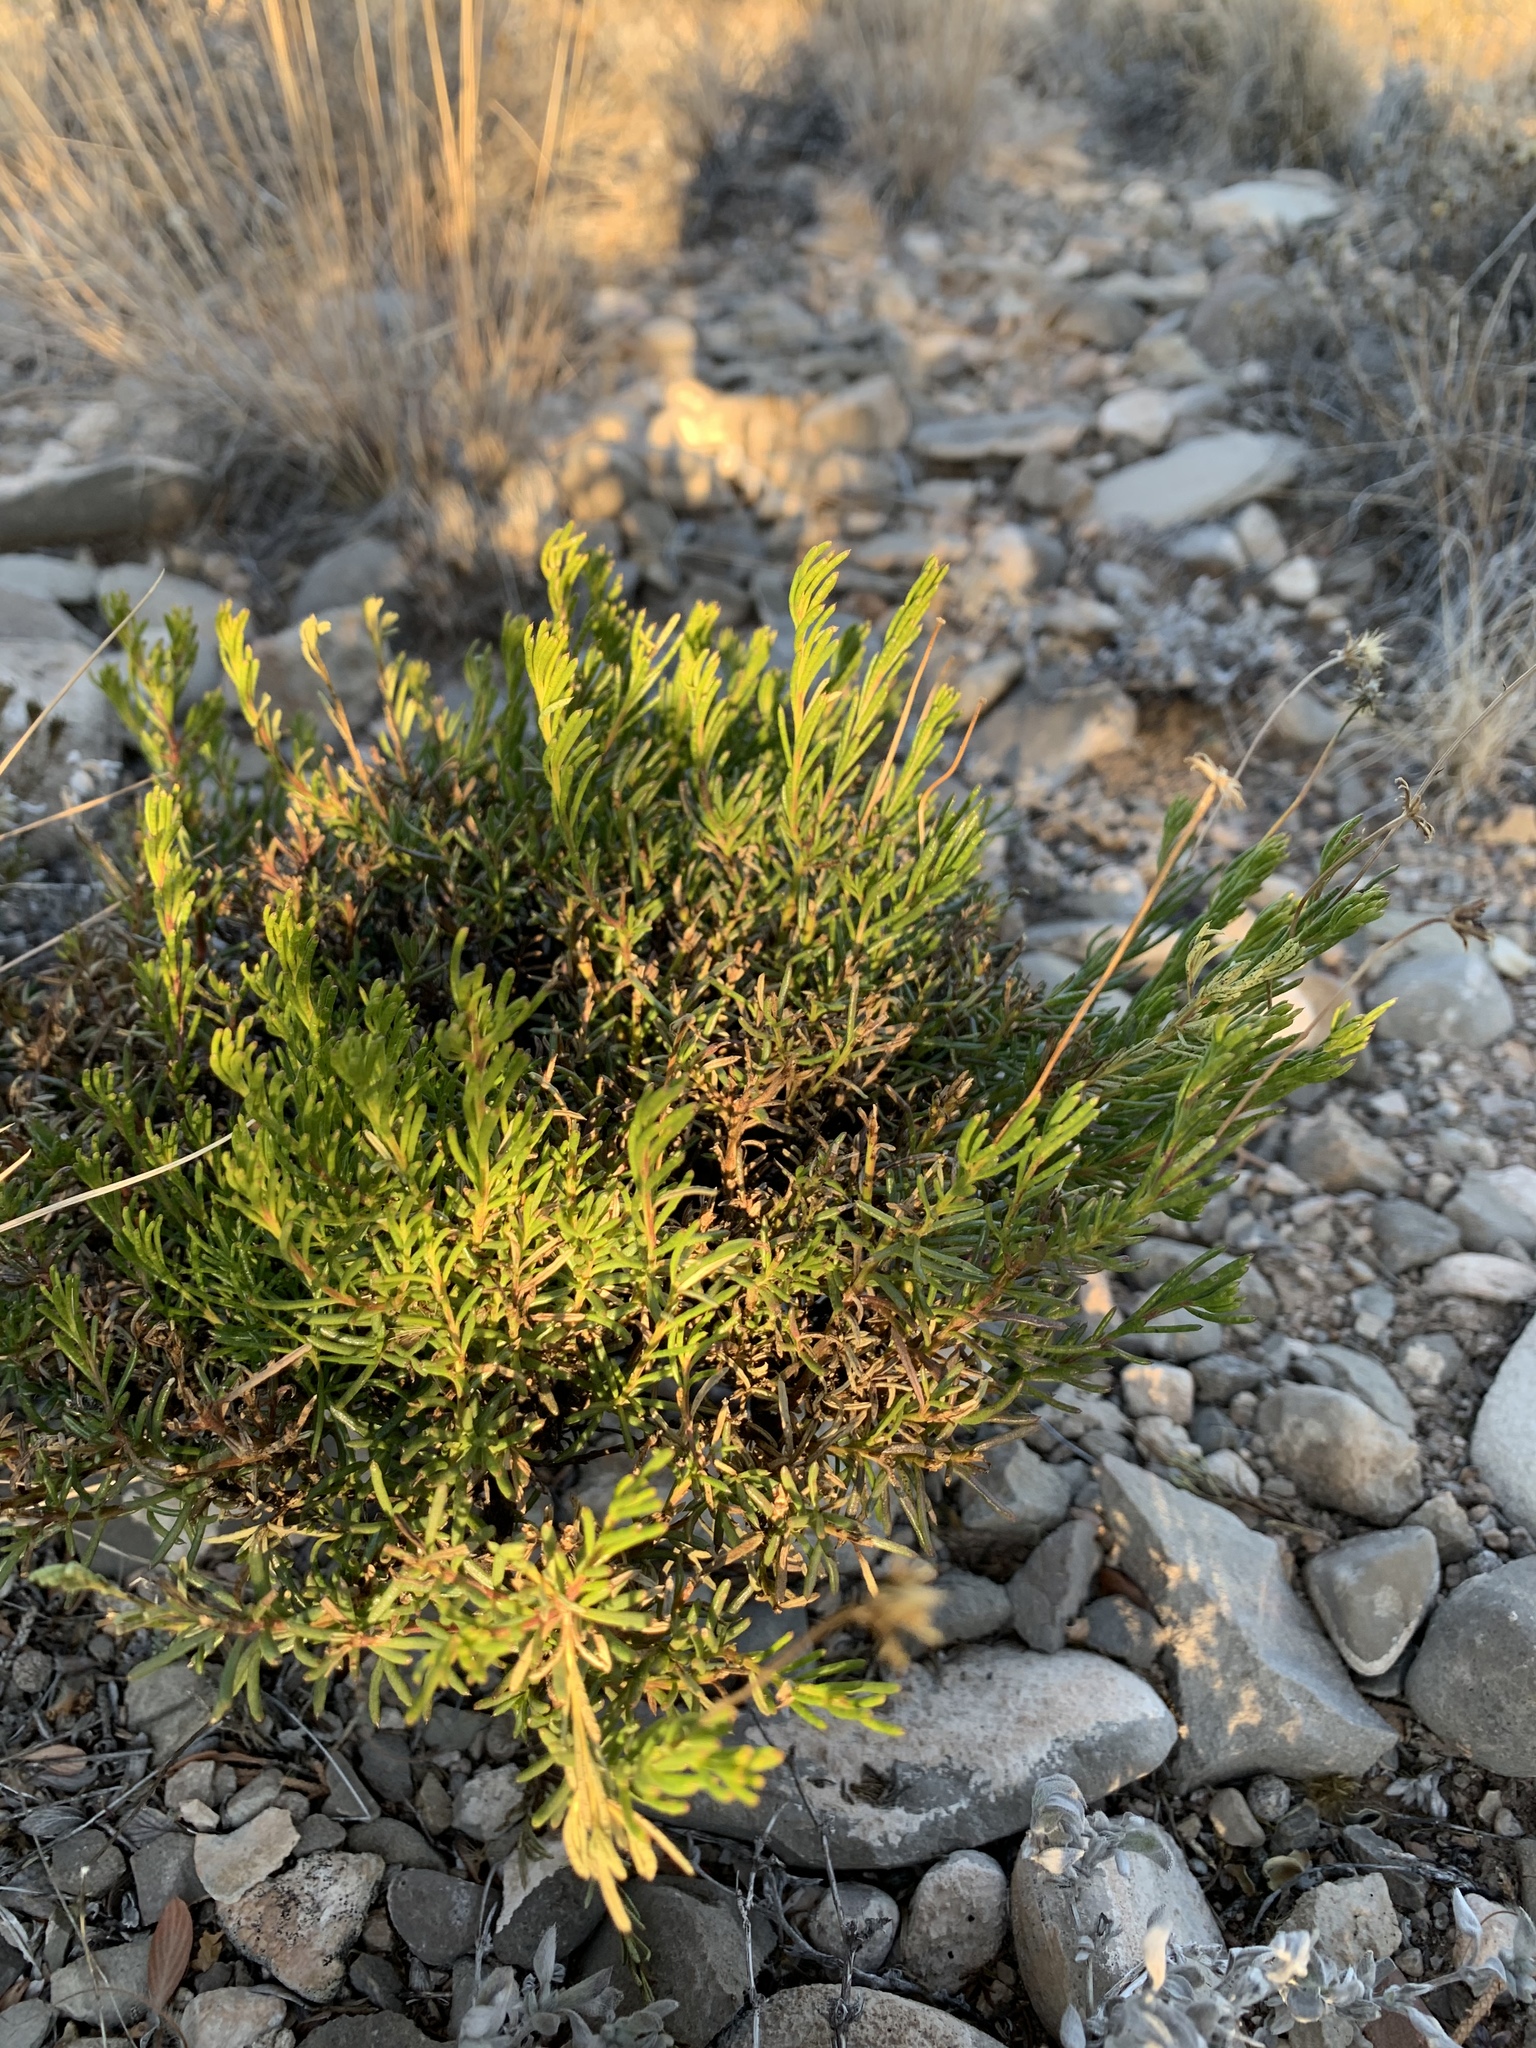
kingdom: Plantae
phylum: Tracheophyta
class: Magnoliopsida
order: Asterales
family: Asteraceae
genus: Chrysactinia
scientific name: Chrysactinia mexicana
